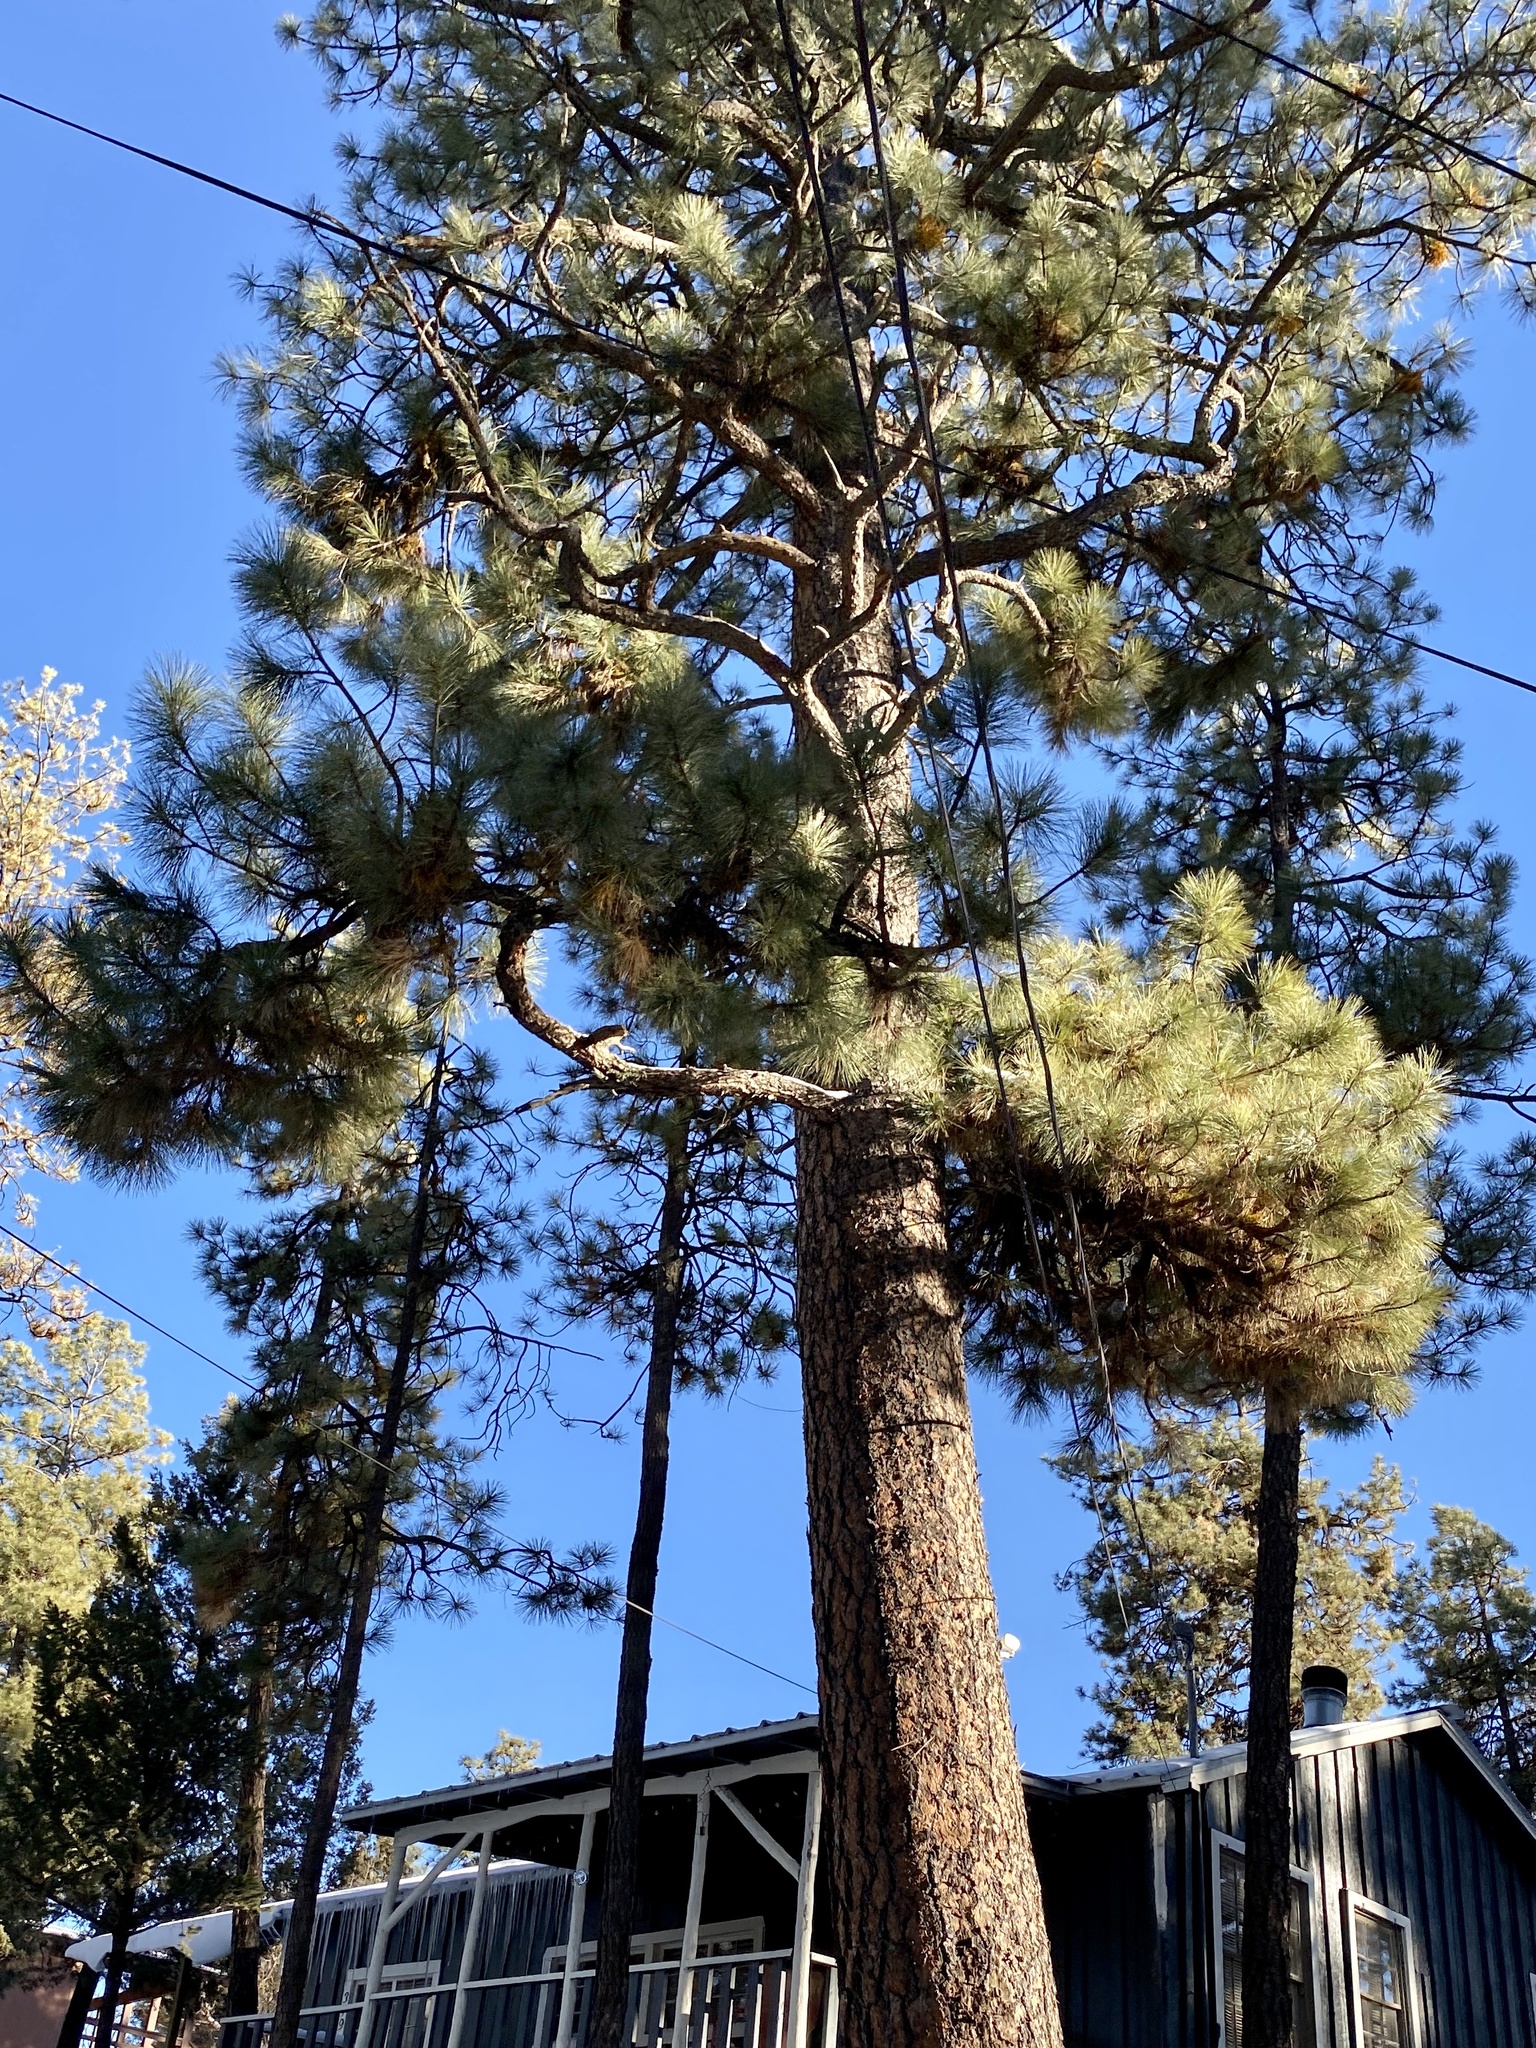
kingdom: Plantae
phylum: Tracheophyta
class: Pinopsida
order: Pinales
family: Pinaceae
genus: Pinus
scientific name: Pinus ponderosa
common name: Western yellow-pine
